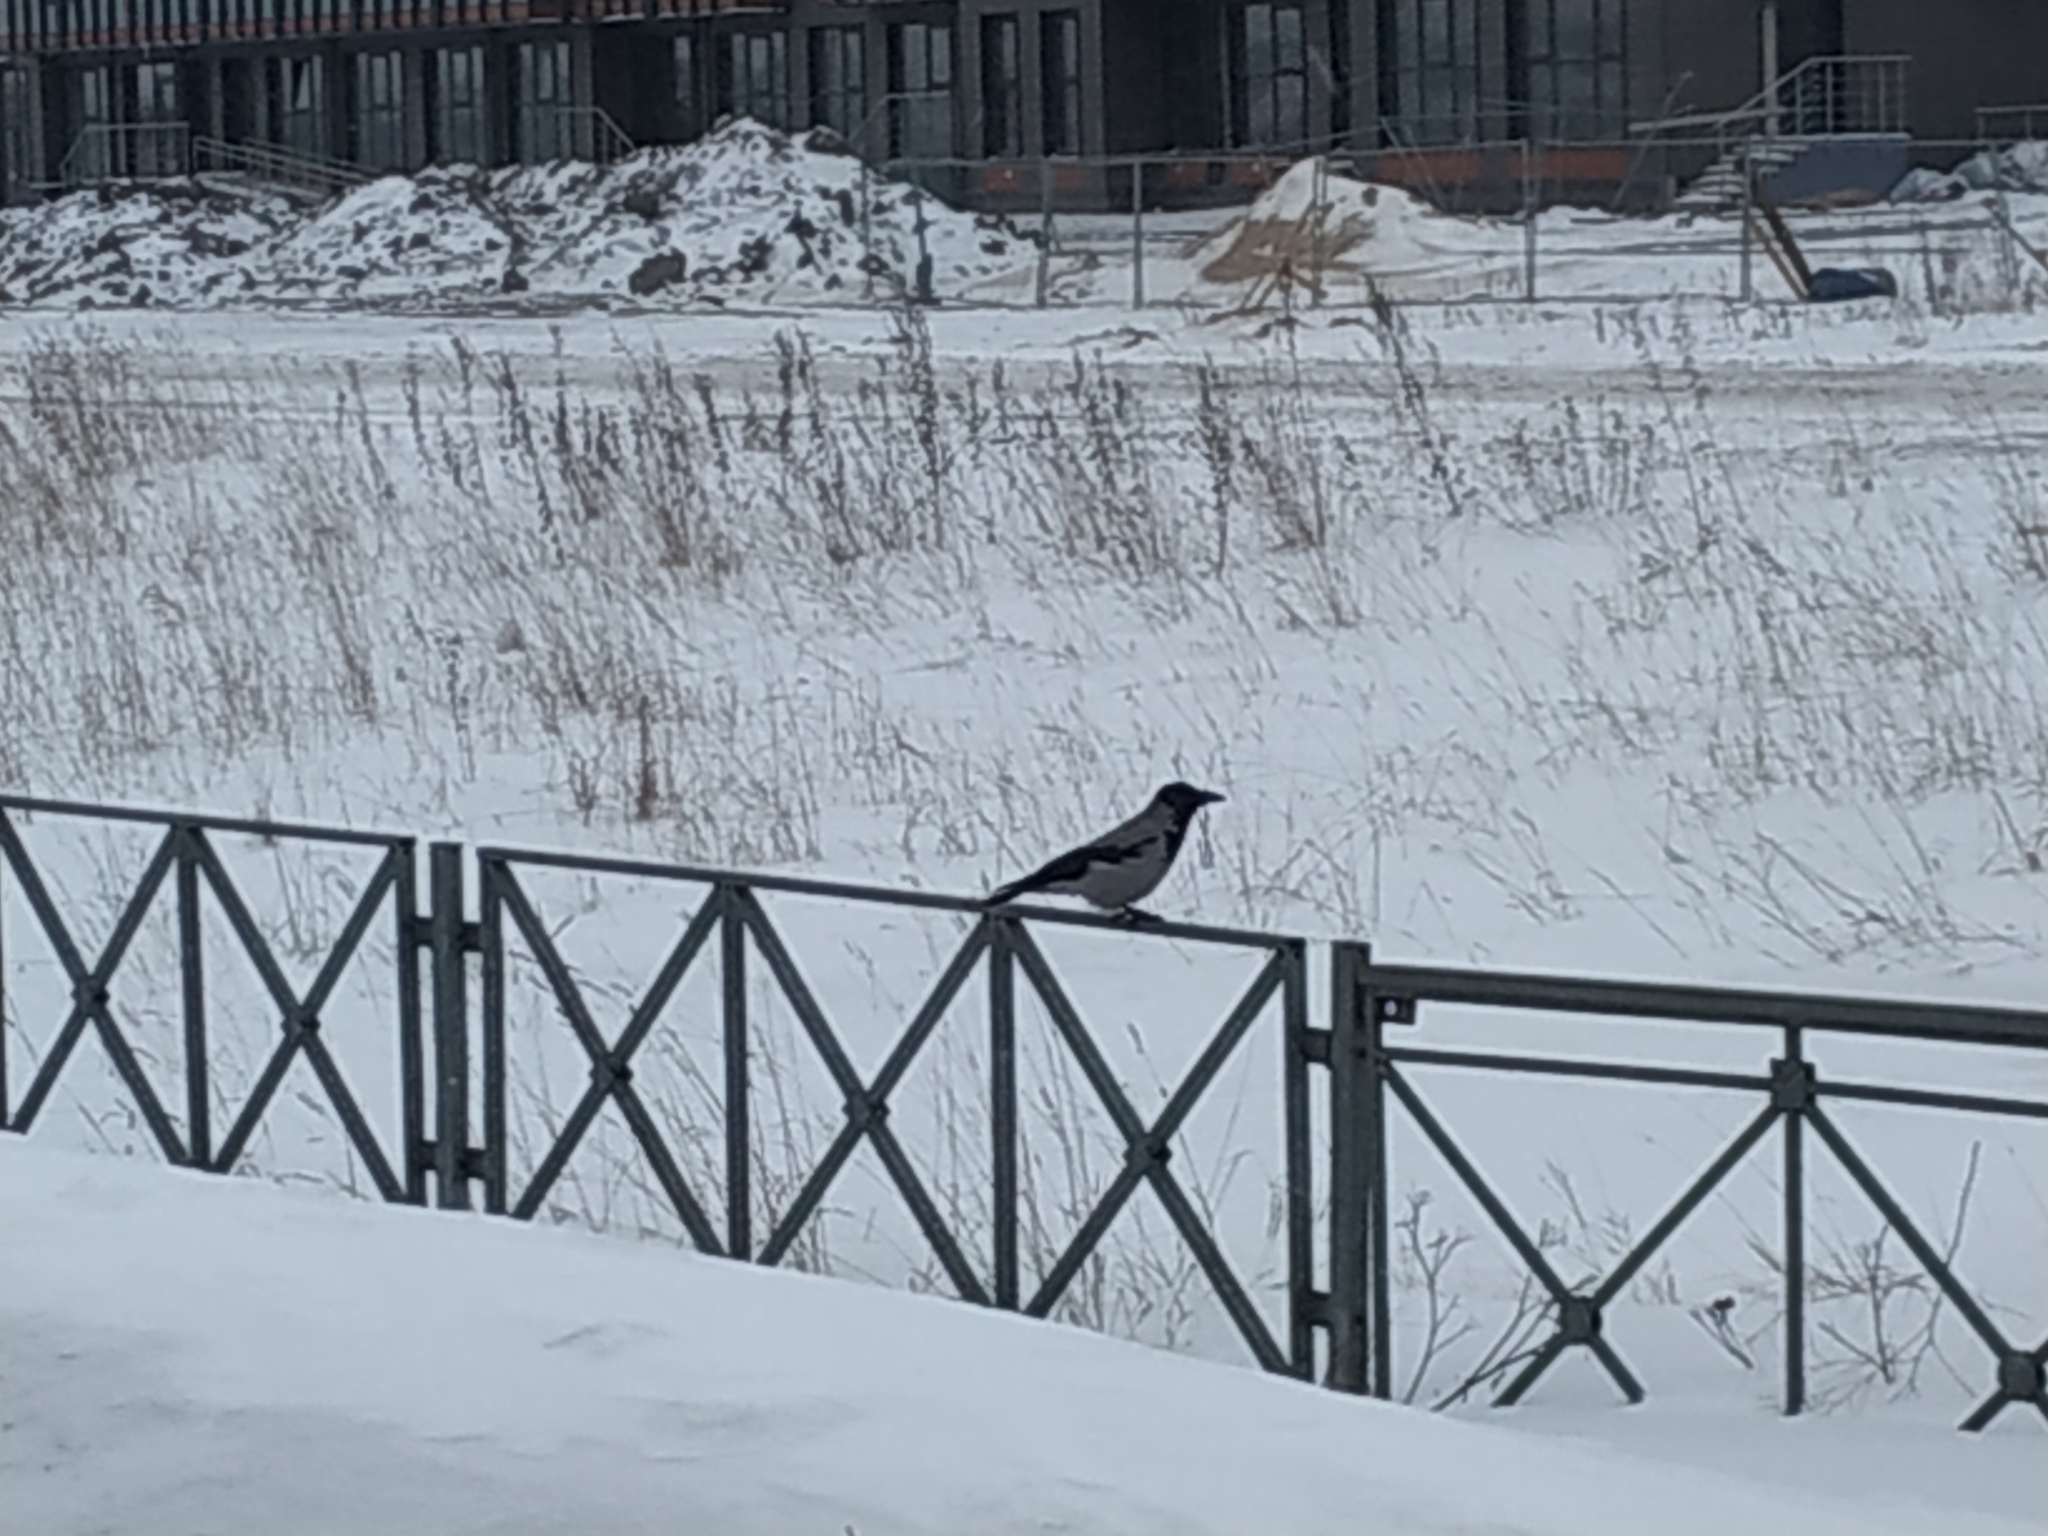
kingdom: Animalia
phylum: Chordata
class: Aves
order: Passeriformes
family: Corvidae
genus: Corvus
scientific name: Corvus cornix
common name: Hooded crow
